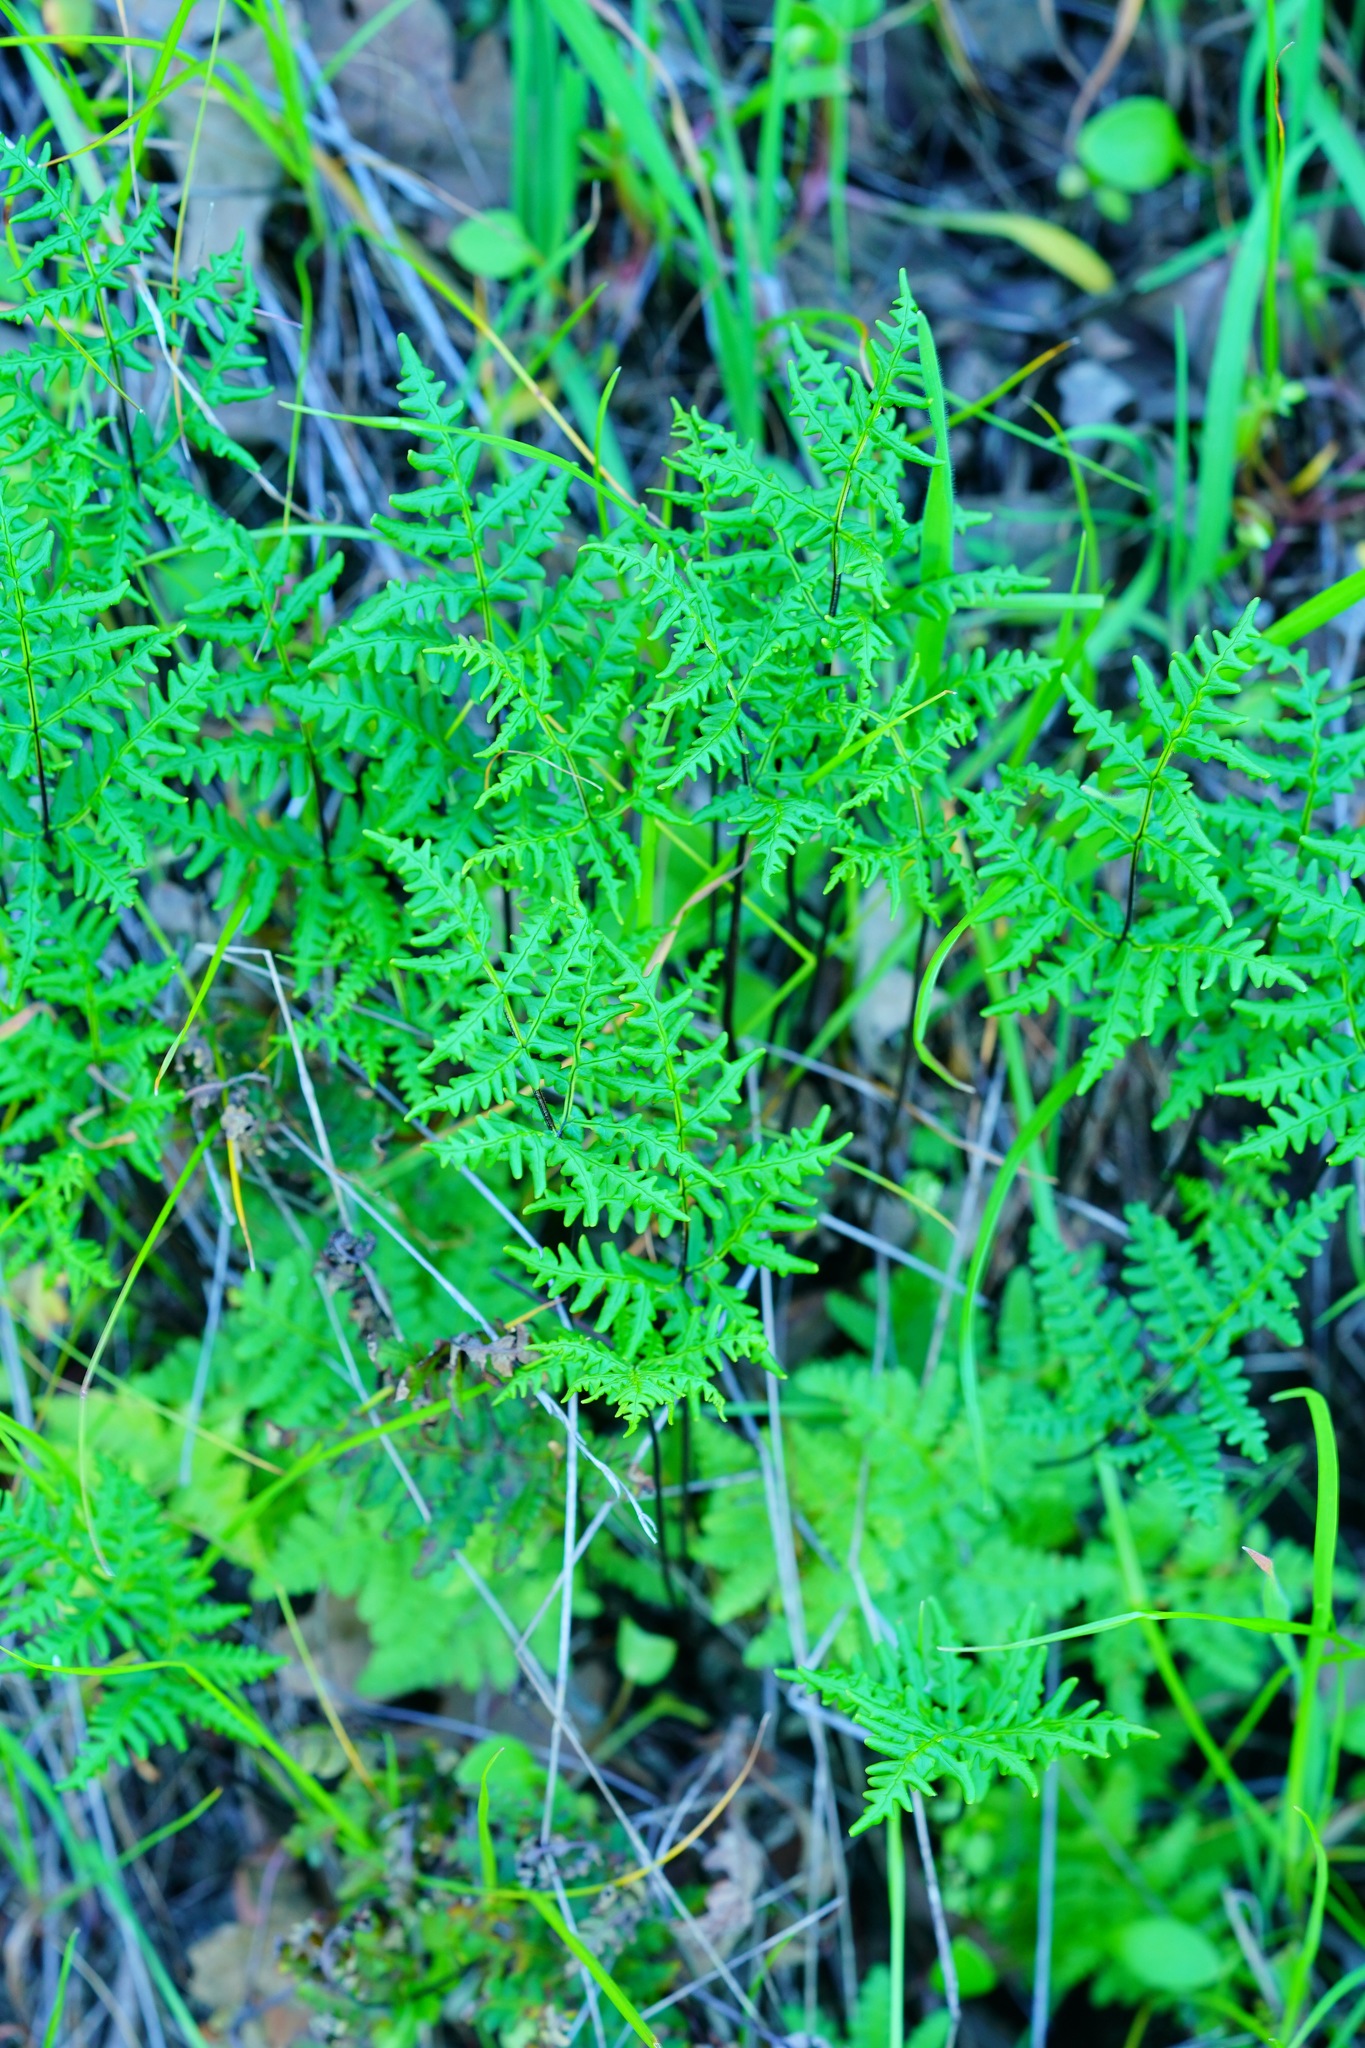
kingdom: Plantae
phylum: Tracheophyta
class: Polypodiopsida
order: Polypodiales
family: Pteridaceae
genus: Pentagramma
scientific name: Pentagramma triangularis
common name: Gold fern
